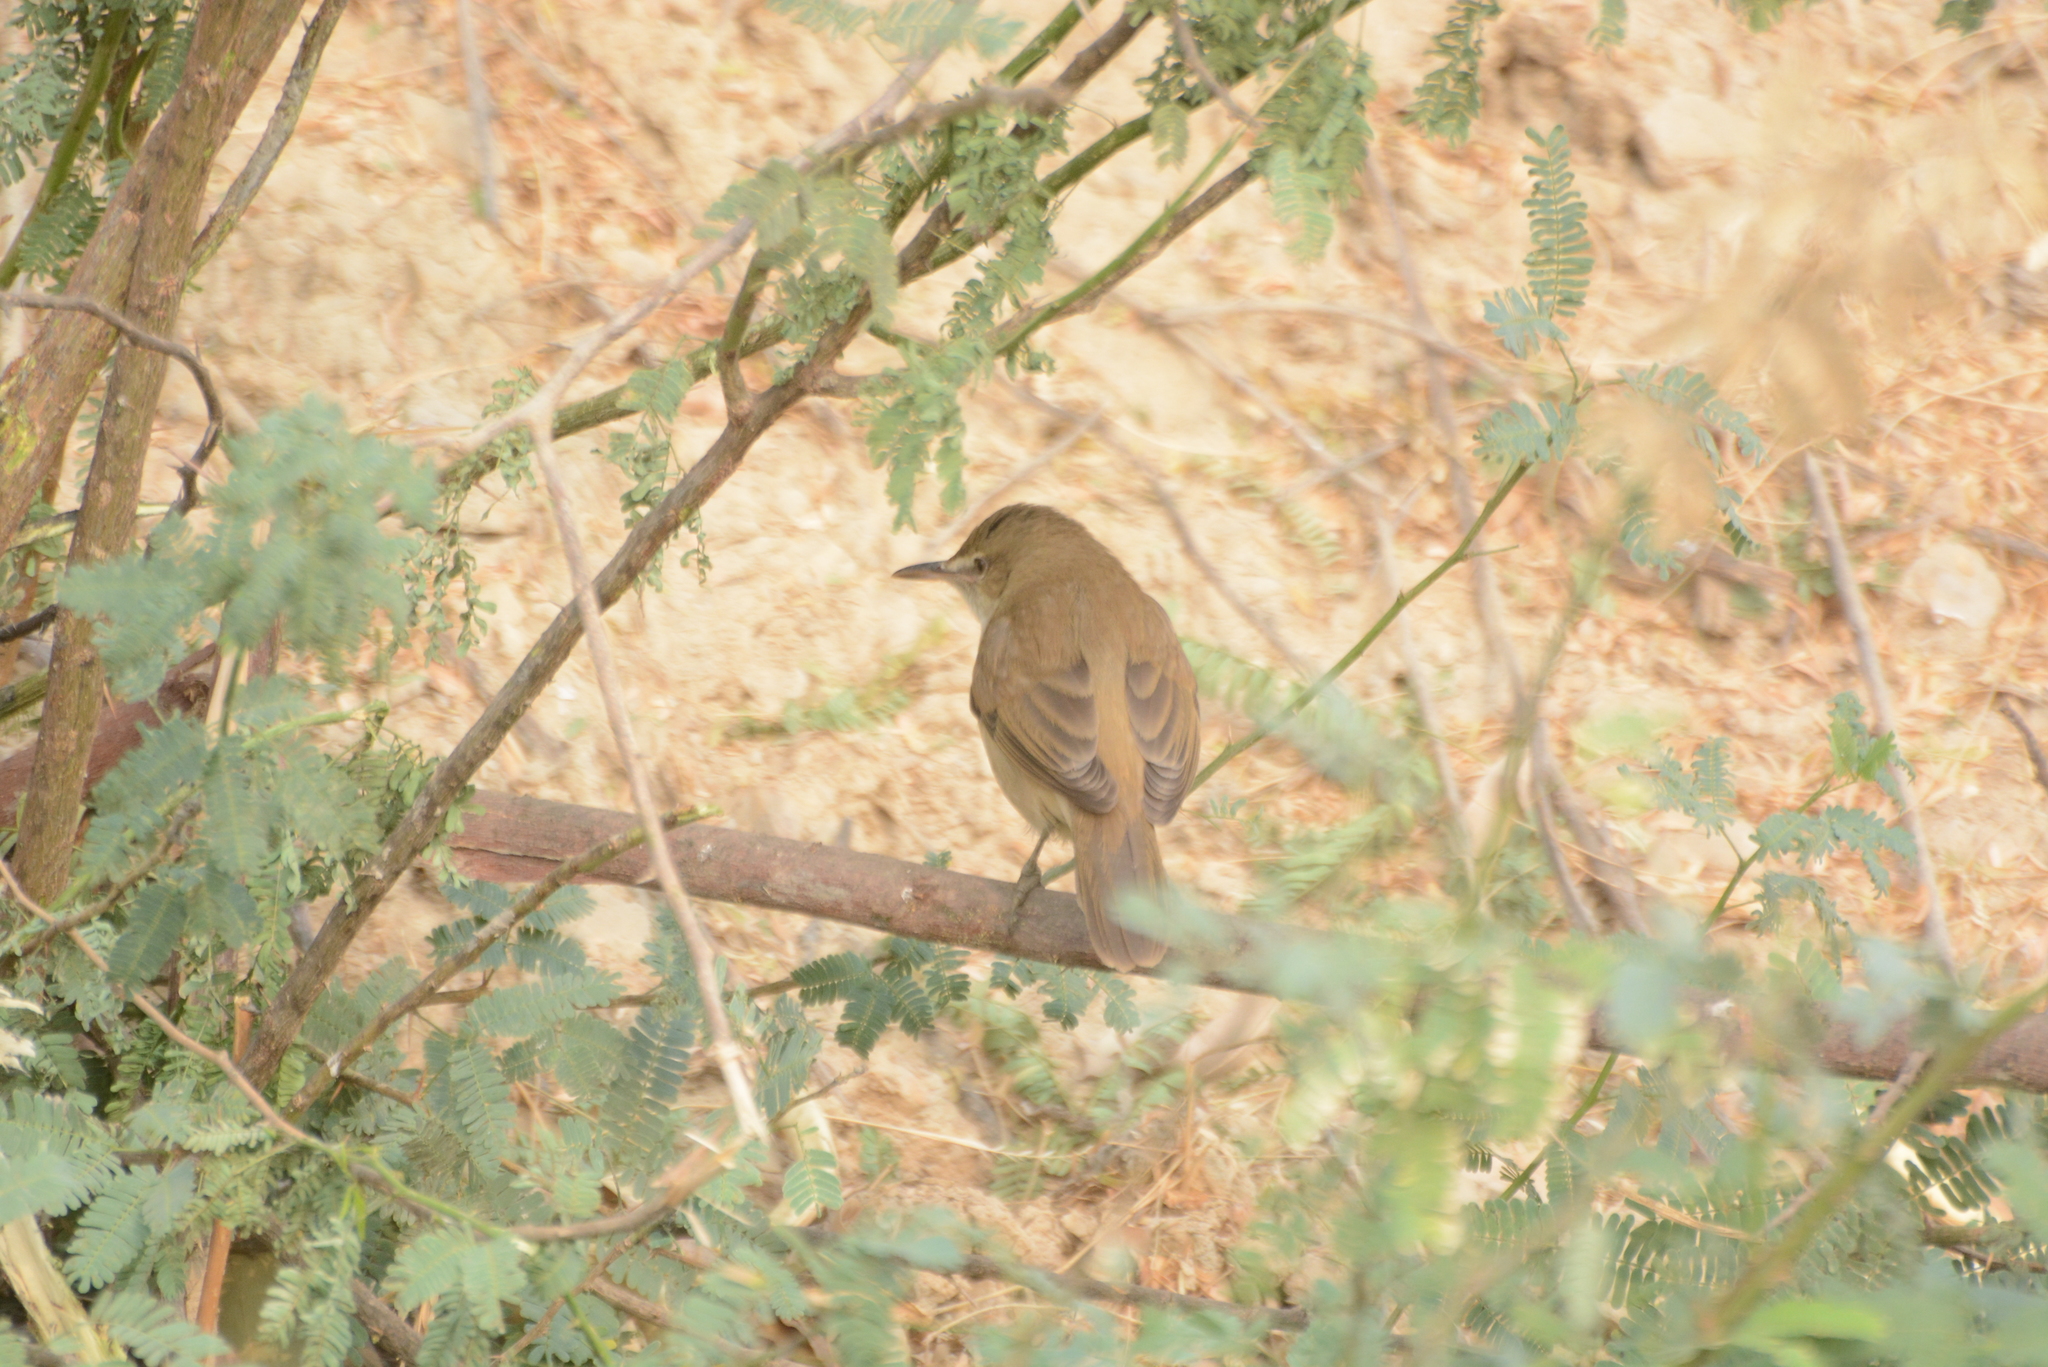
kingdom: Animalia
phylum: Chordata
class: Aves
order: Passeriformes
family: Acrocephalidae
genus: Acrocephalus
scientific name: Acrocephalus dumetorum
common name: Blyth's reed warbler
